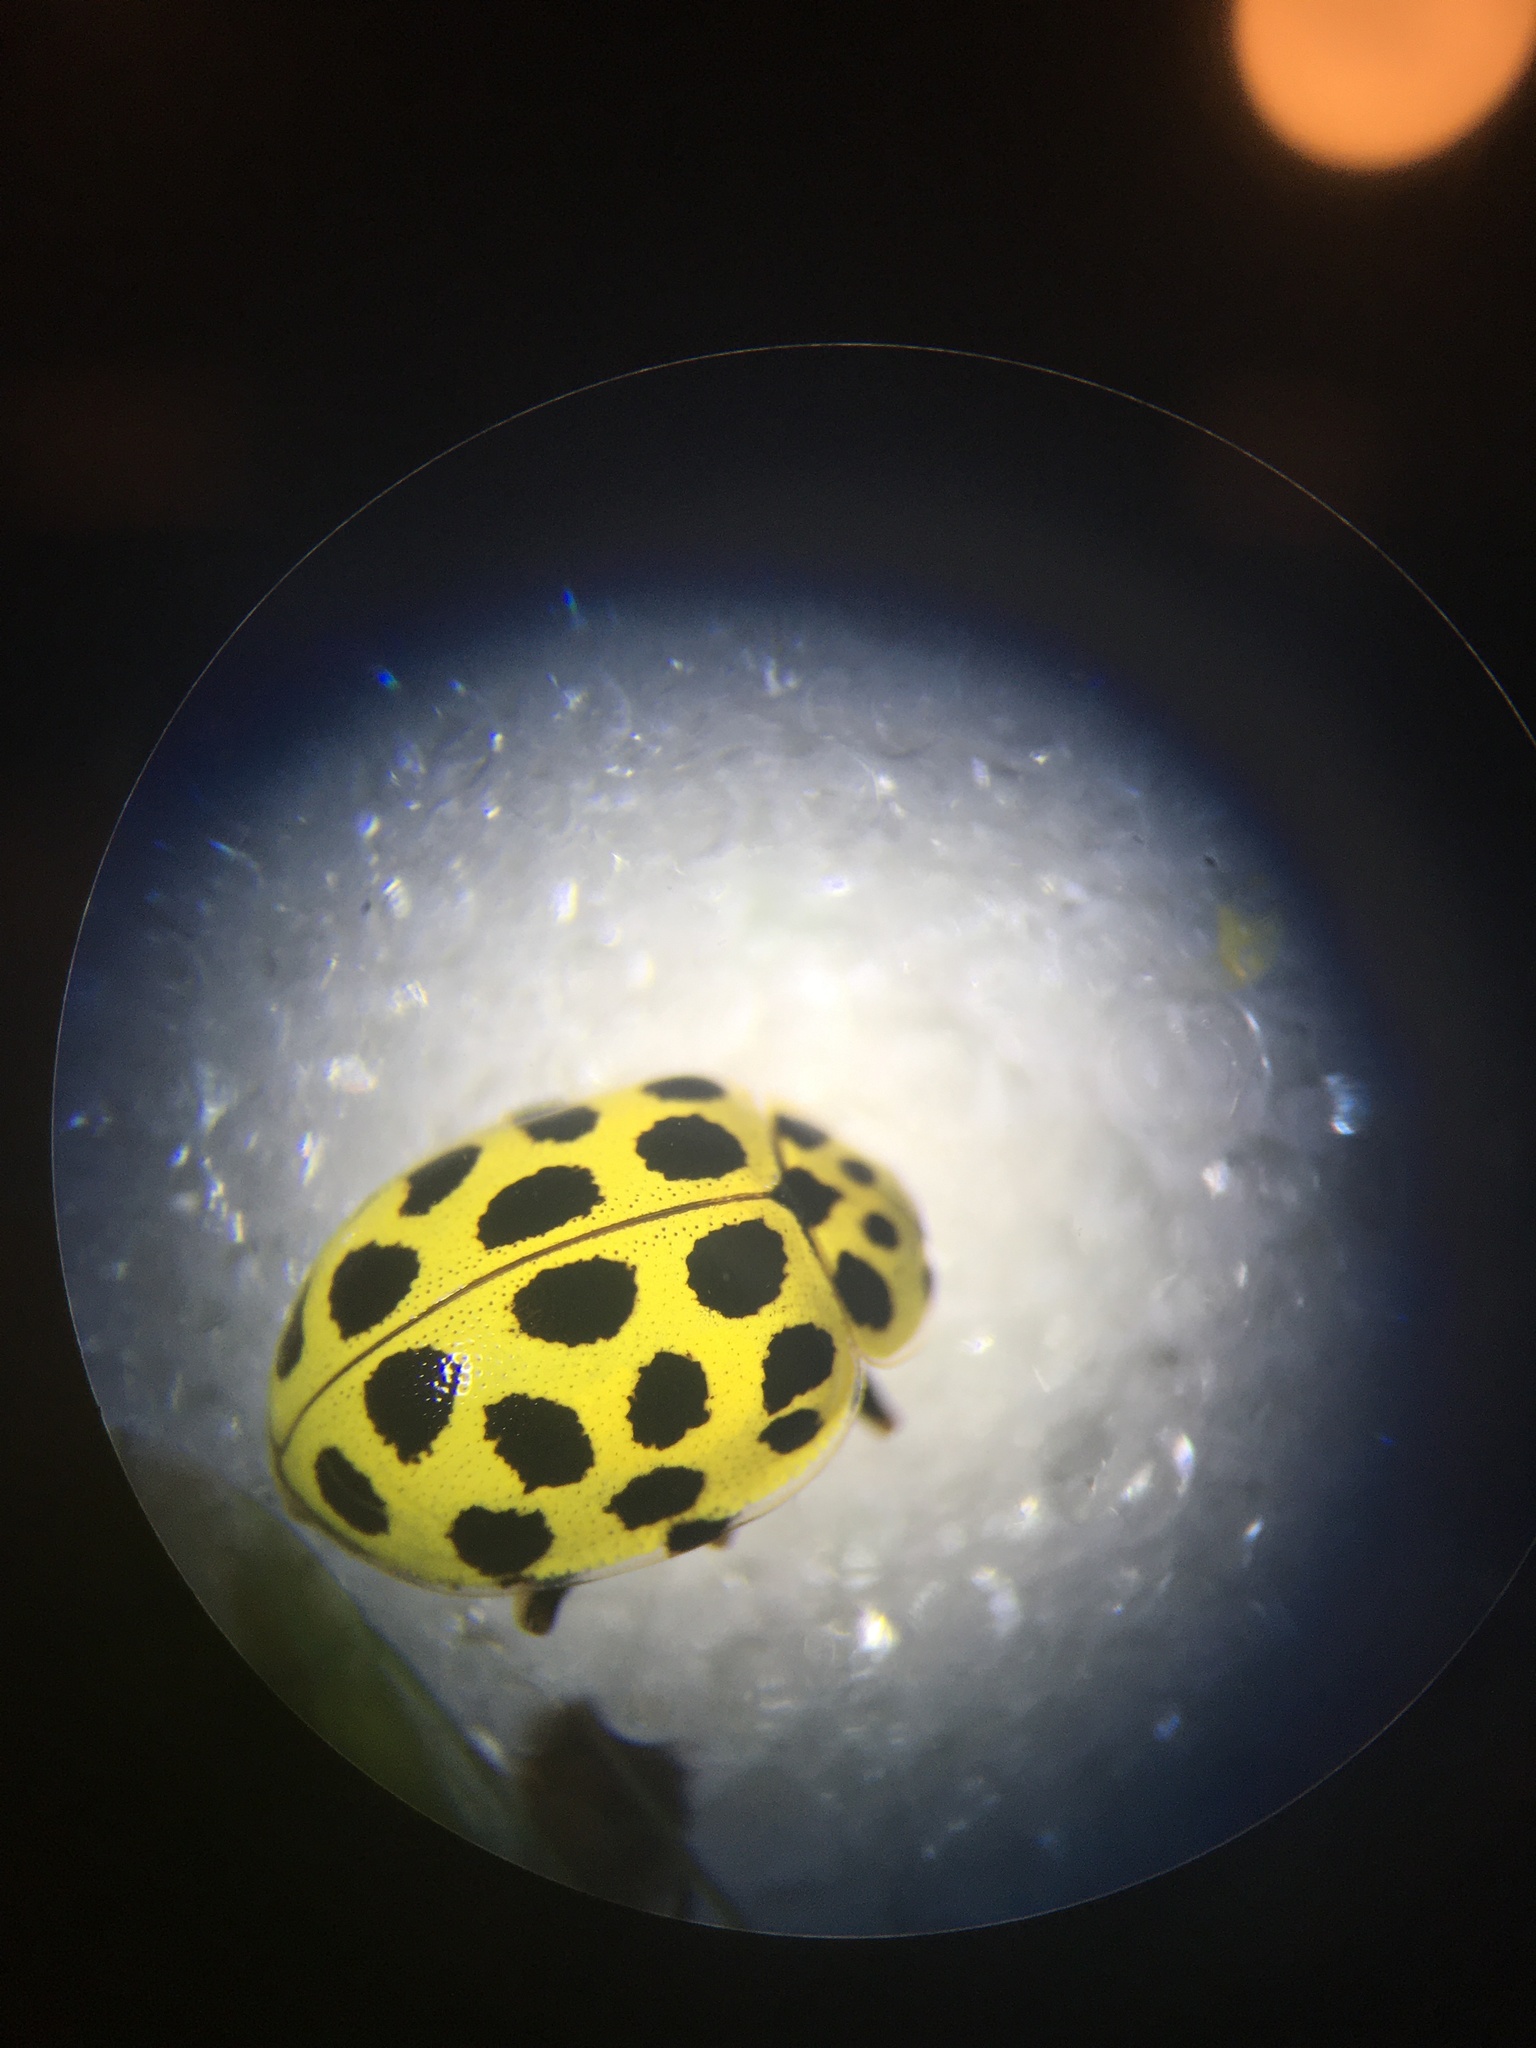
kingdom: Animalia
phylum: Arthropoda
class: Insecta
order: Coleoptera
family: Coccinellidae
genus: Psyllobora
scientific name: Psyllobora vigintiduopunctata
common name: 22-spot ladybird
